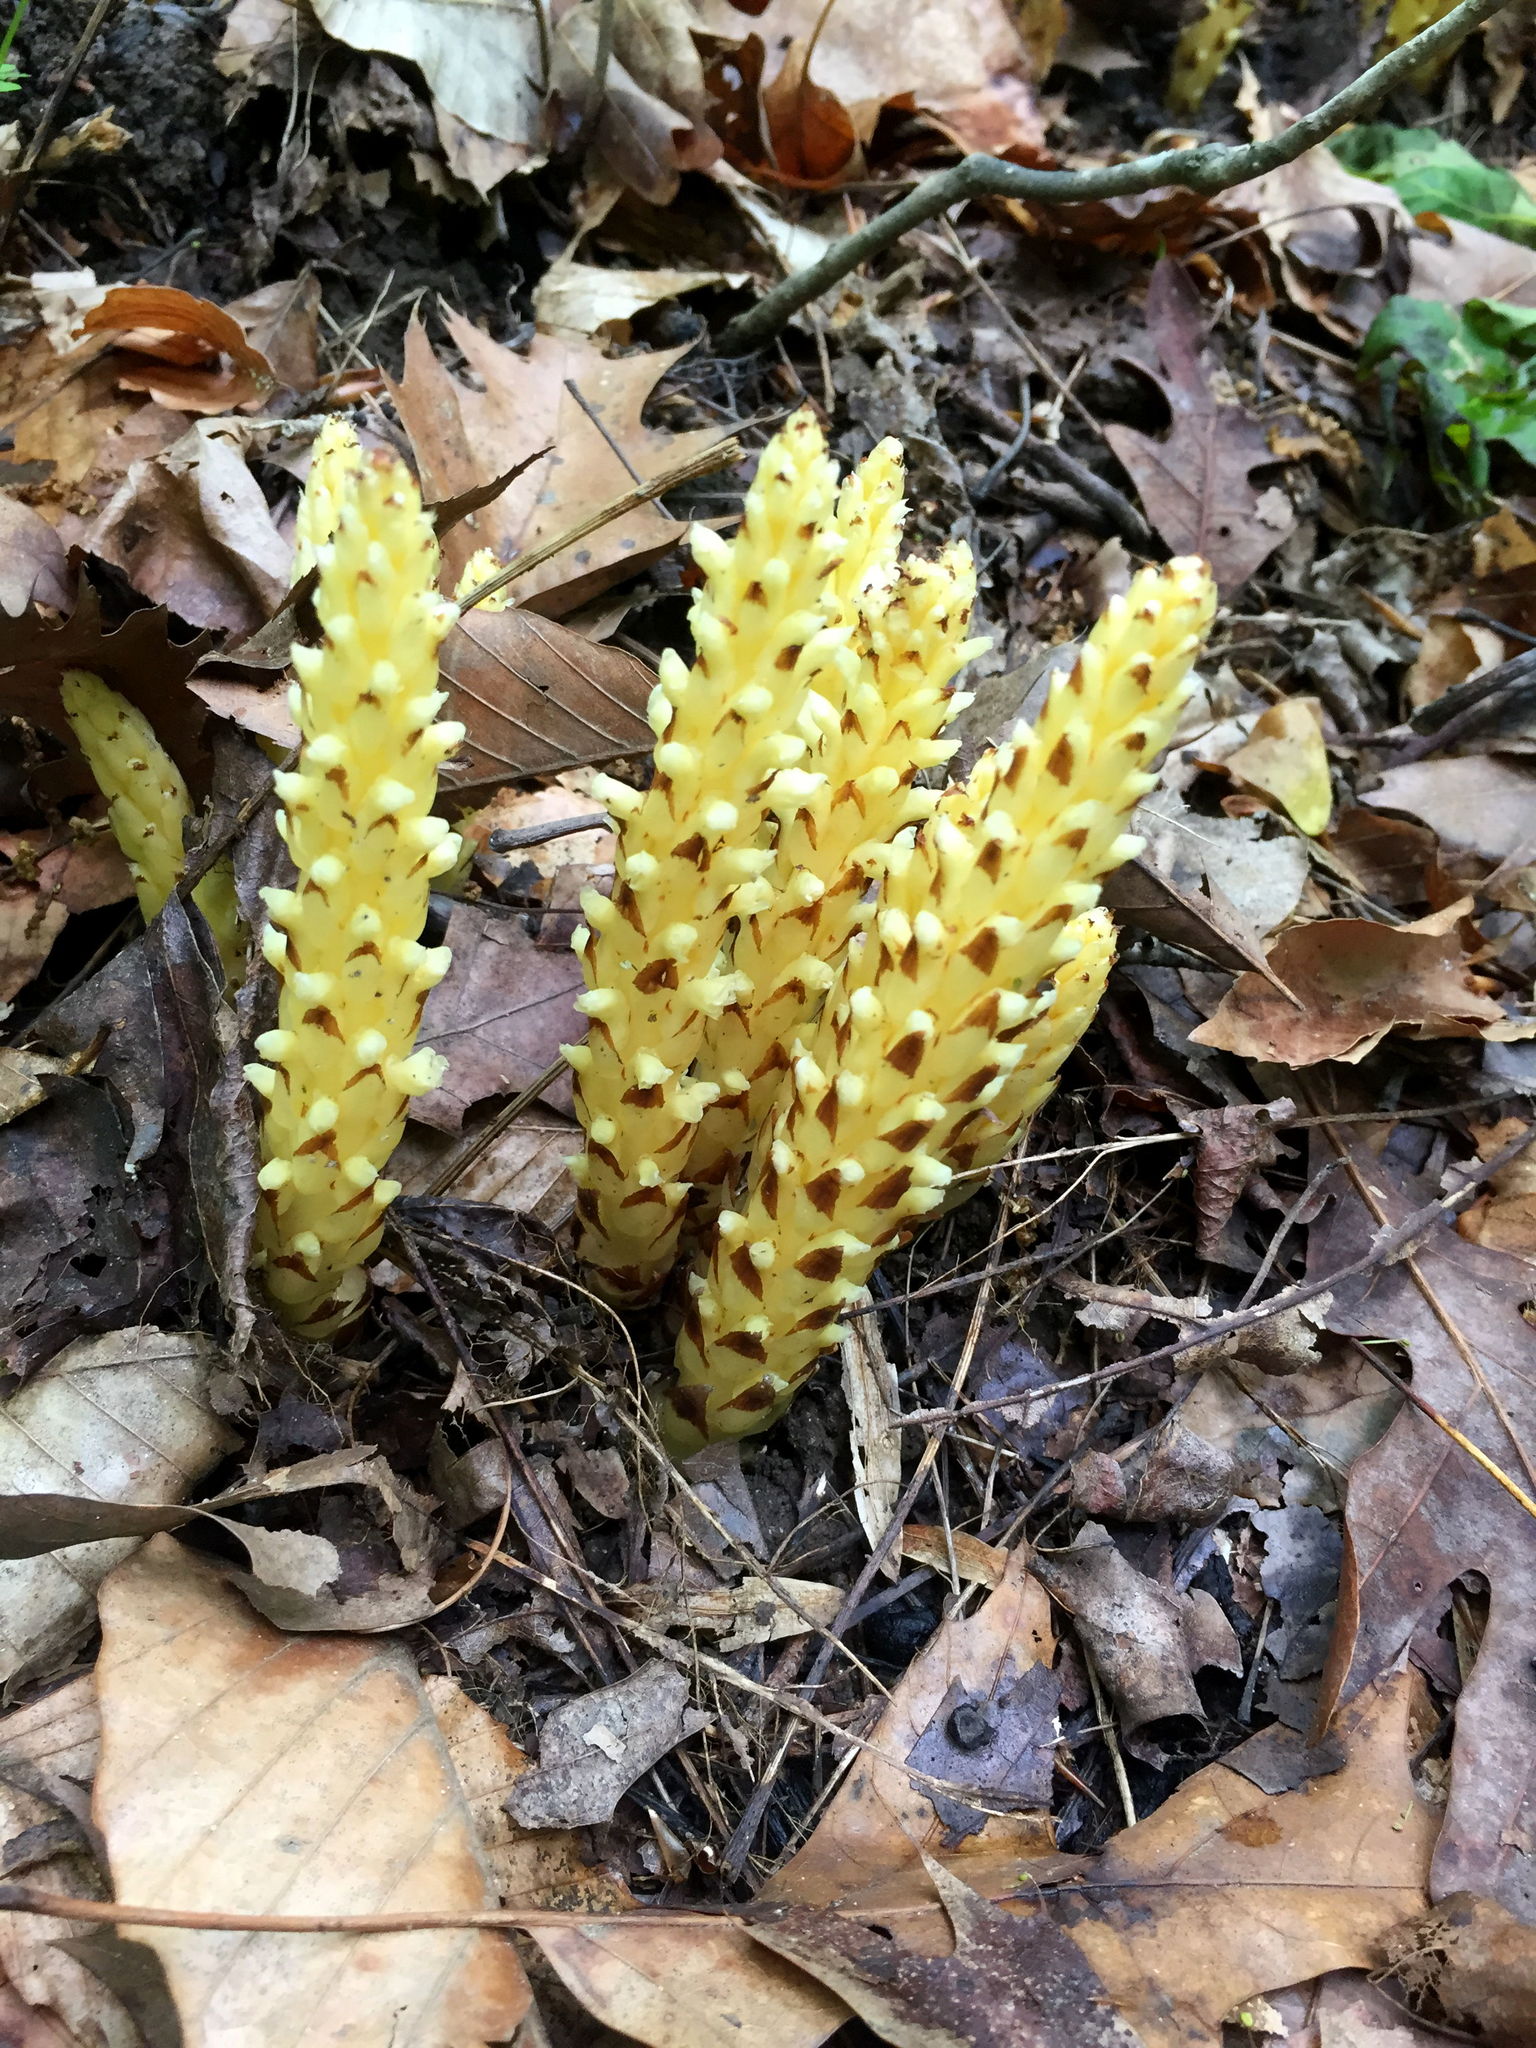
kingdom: Plantae
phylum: Tracheophyta
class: Magnoliopsida
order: Lamiales
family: Orobanchaceae
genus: Conopholis
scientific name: Conopholis americana
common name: American cancer-root
